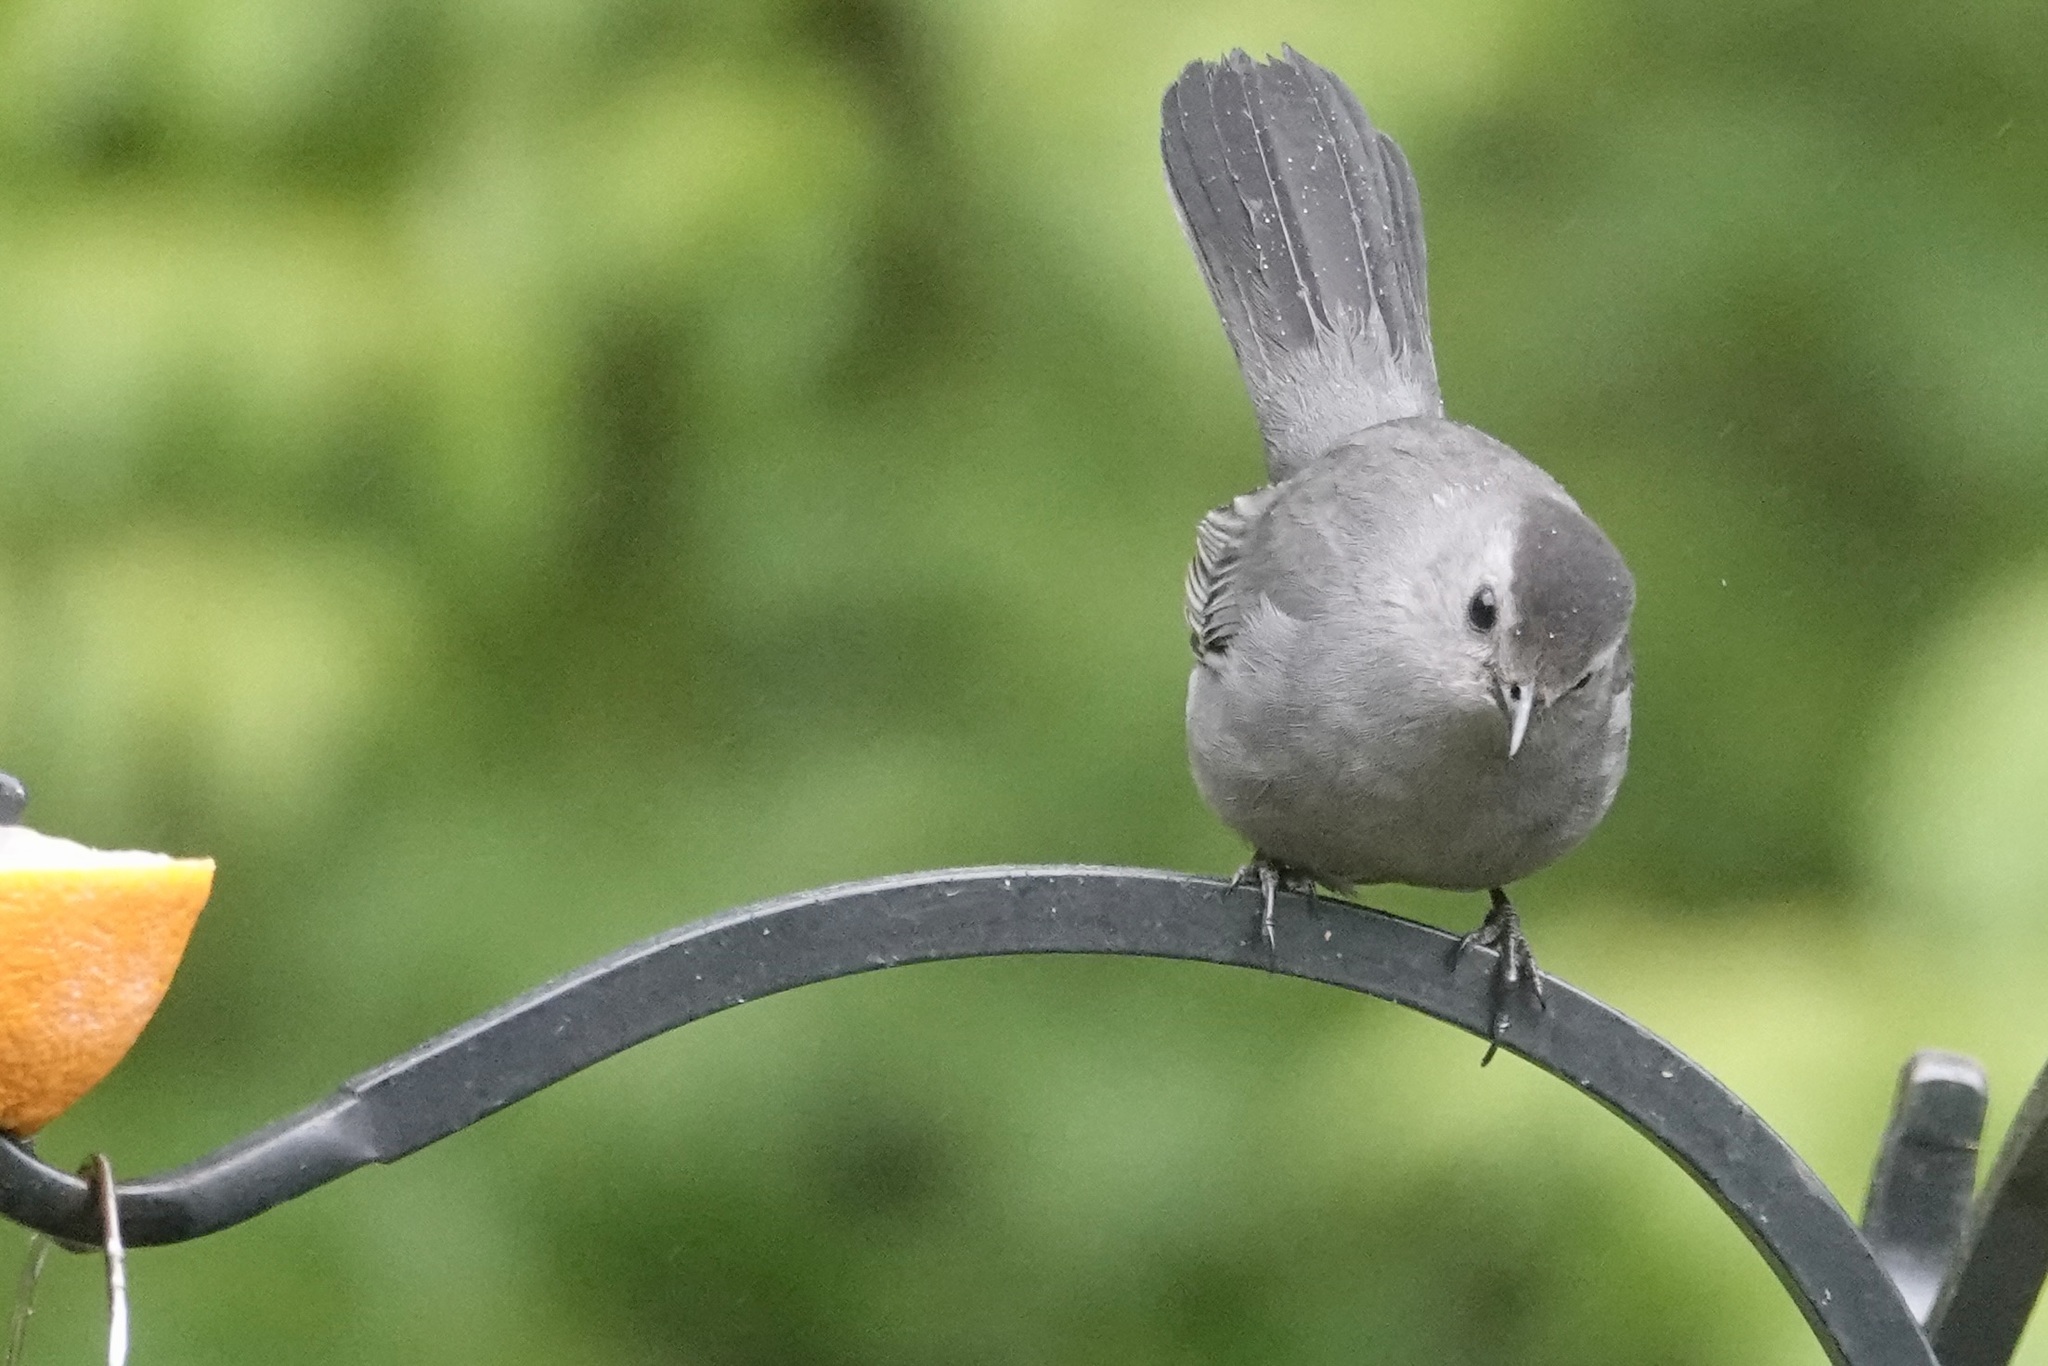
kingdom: Animalia
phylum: Chordata
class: Aves
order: Passeriformes
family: Mimidae
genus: Dumetella
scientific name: Dumetella carolinensis
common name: Gray catbird
